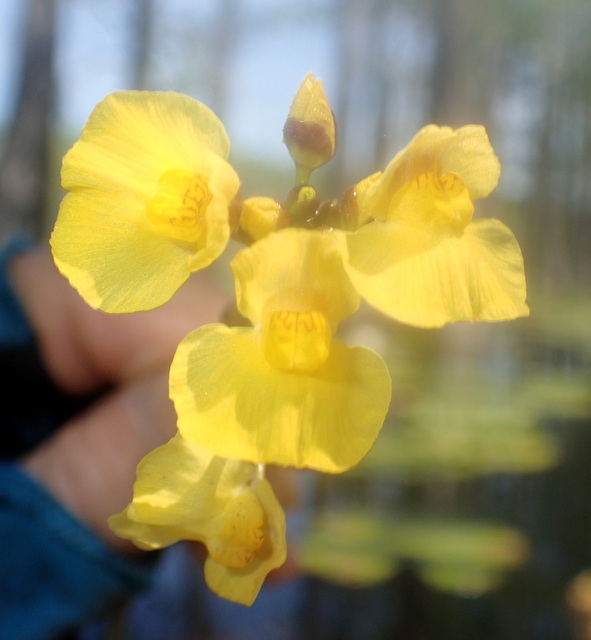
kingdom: Plantae
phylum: Tracheophyta
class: Magnoliopsida
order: Lamiales
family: Lentibulariaceae
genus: Utricularia
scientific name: Utricularia foliosa
